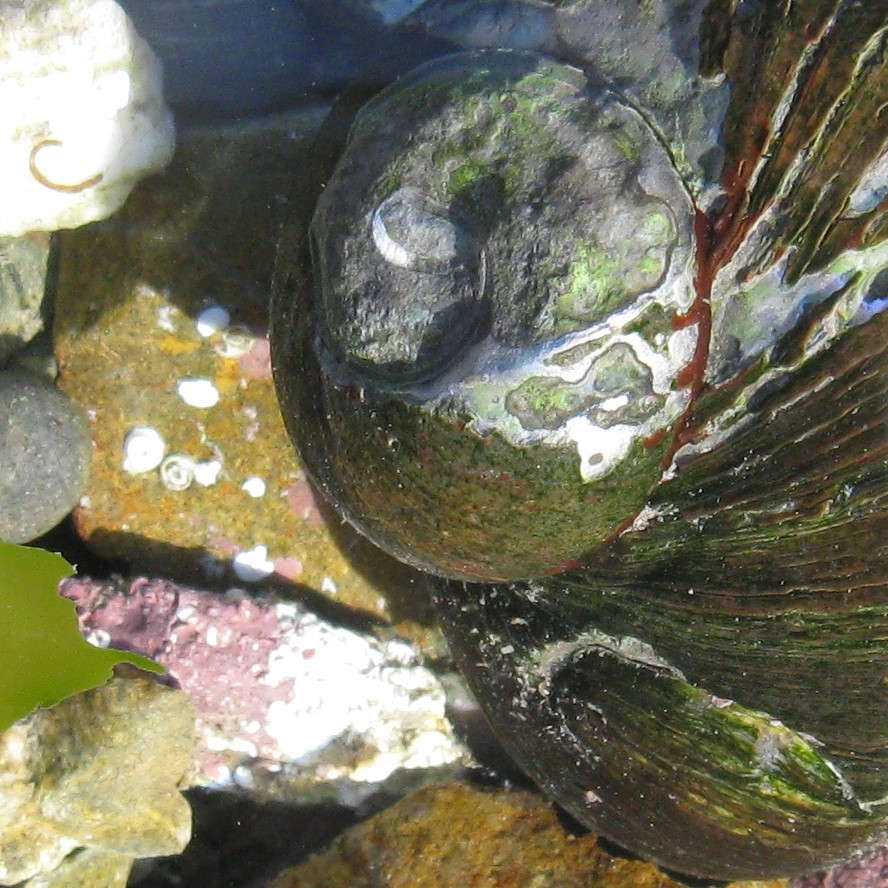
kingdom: Animalia
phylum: Mollusca
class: Gastropoda
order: Trochida
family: Turbinidae
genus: Lunella
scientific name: Lunella smaragda
